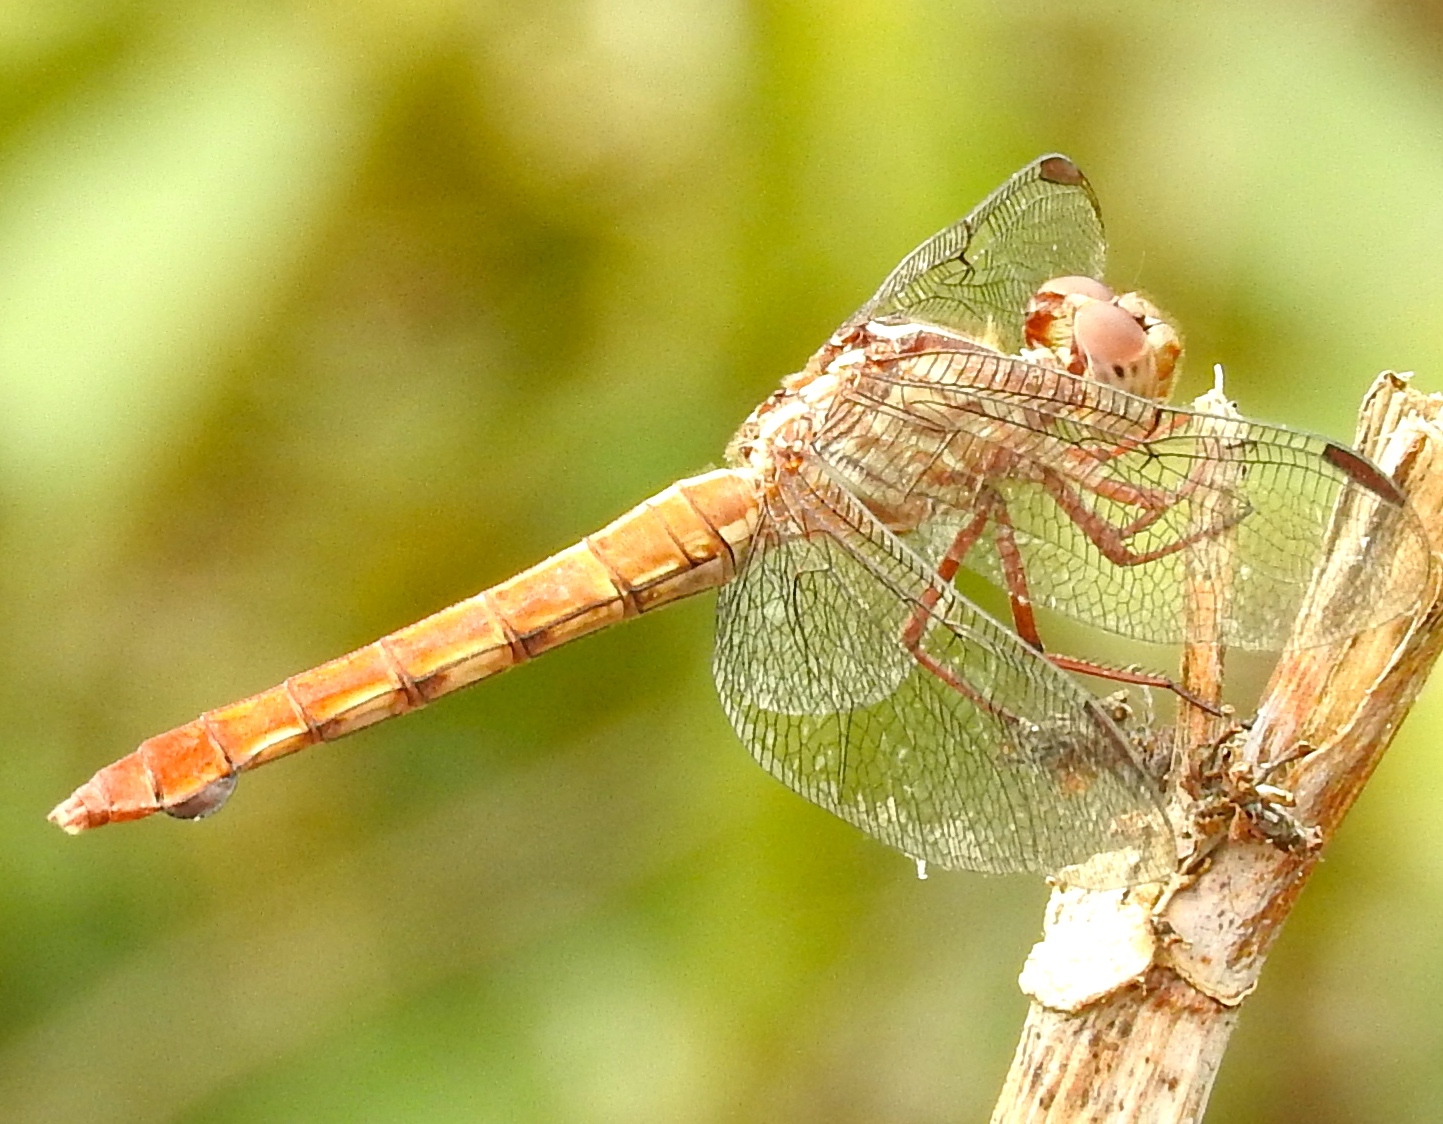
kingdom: Animalia
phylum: Arthropoda
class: Insecta
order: Odonata
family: Libellulidae
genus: Orthemis
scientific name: Orthemis
